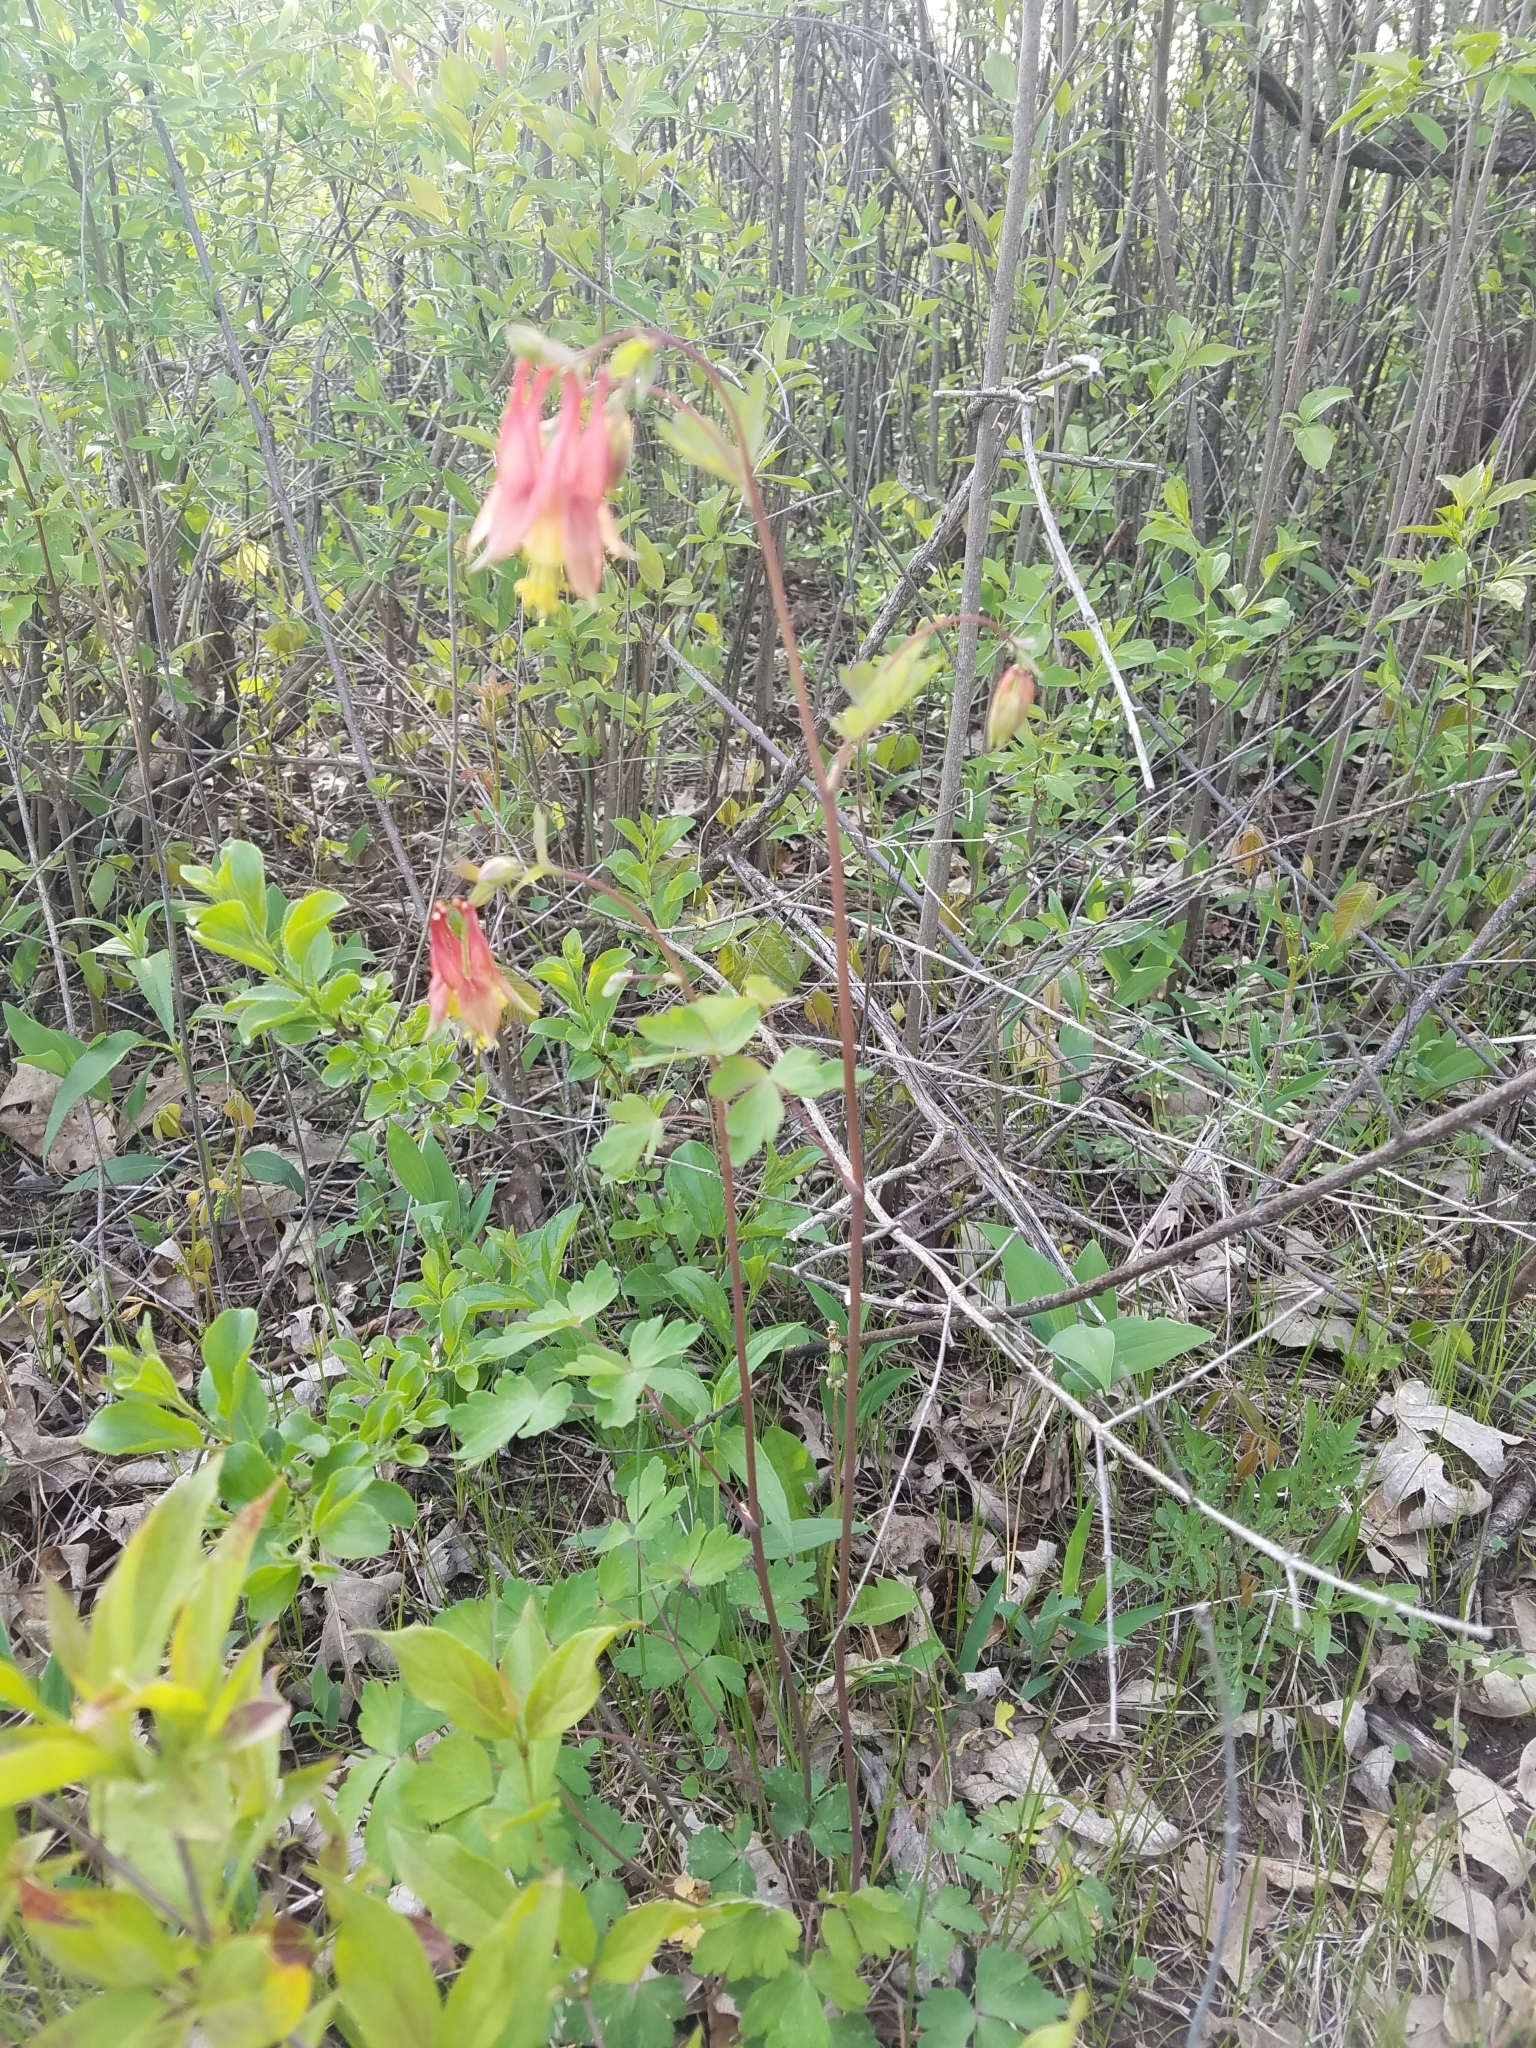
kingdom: Plantae
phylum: Tracheophyta
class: Magnoliopsida
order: Ranunculales
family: Ranunculaceae
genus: Aquilegia
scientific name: Aquilegia canadensis
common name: American columbine
